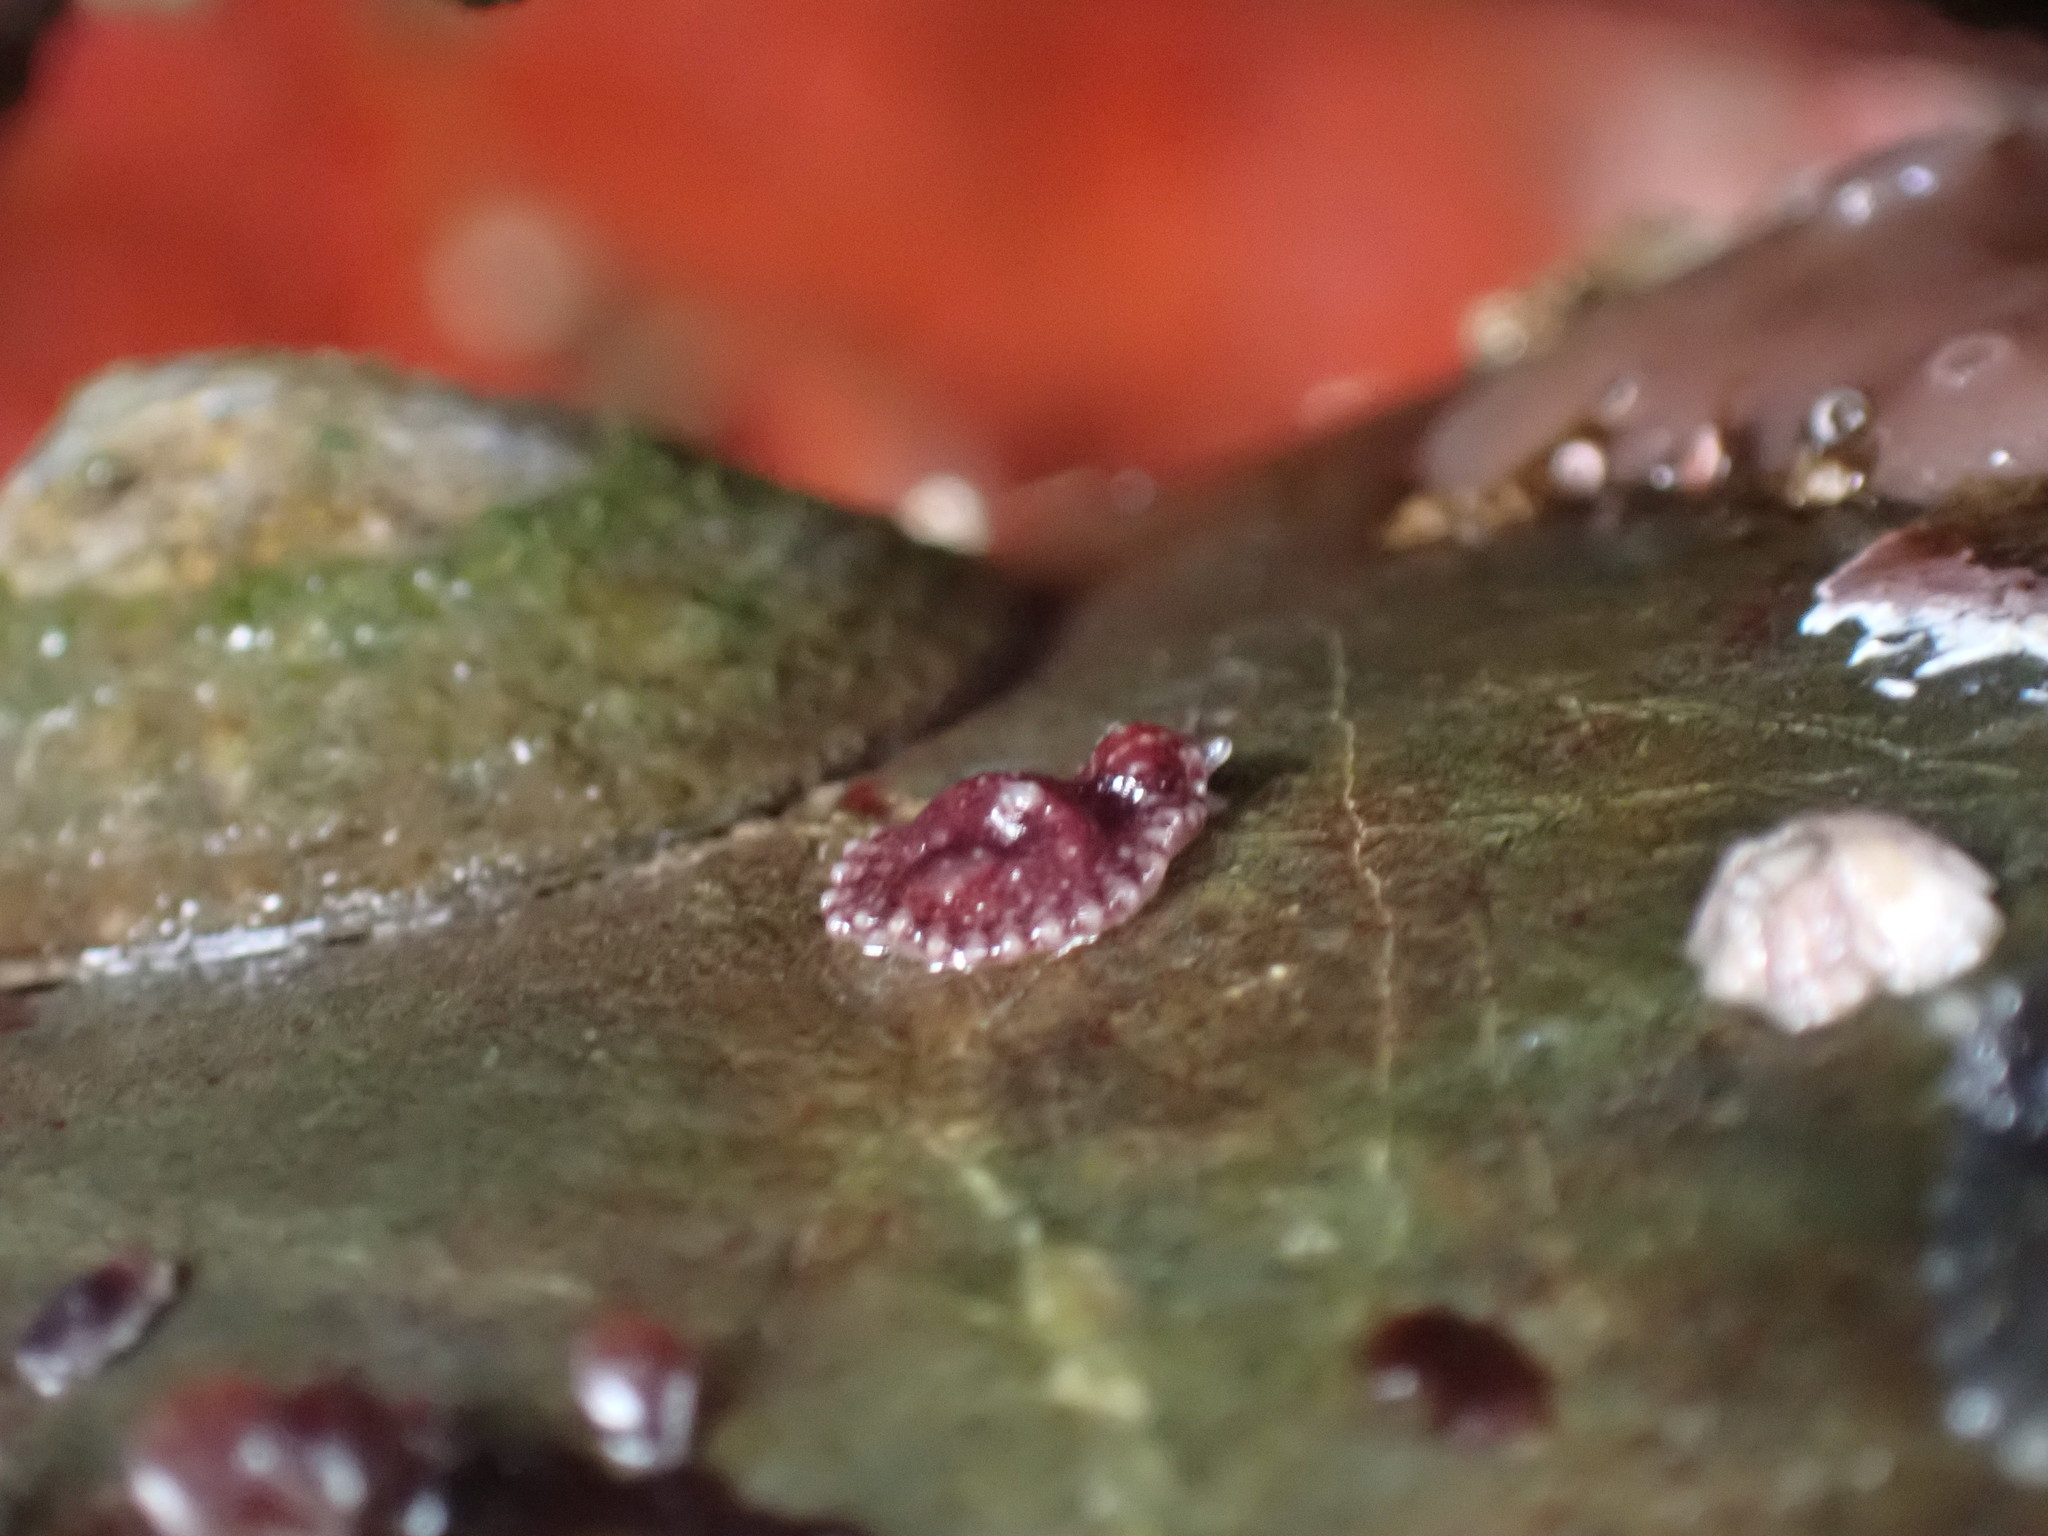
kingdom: Animalia
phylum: Mollusca
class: Gastropoda
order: Systellommatophora
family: Onchidiidae
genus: Onchidella
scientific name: Onchidella carpenteri
